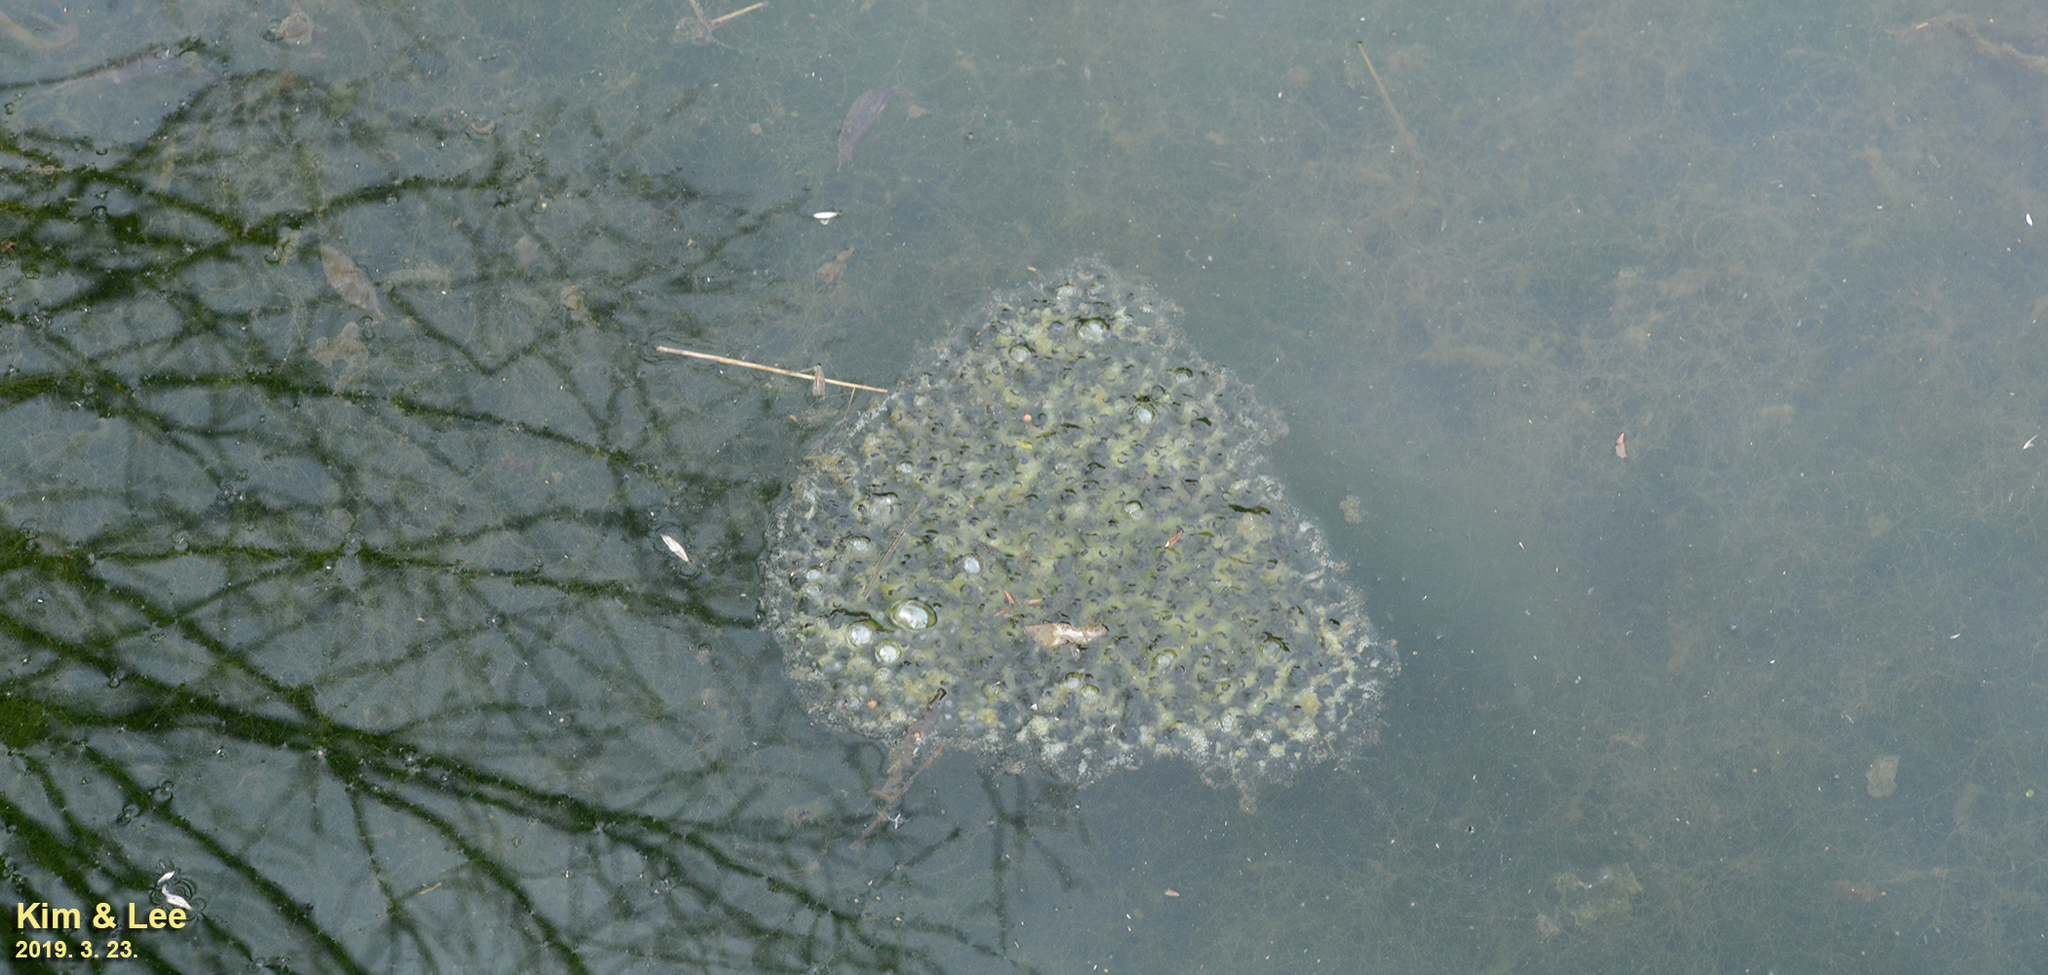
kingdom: Animalia
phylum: Chordata
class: Amphibia
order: Anura
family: Ranidae
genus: Rana
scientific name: Rana uenoi
